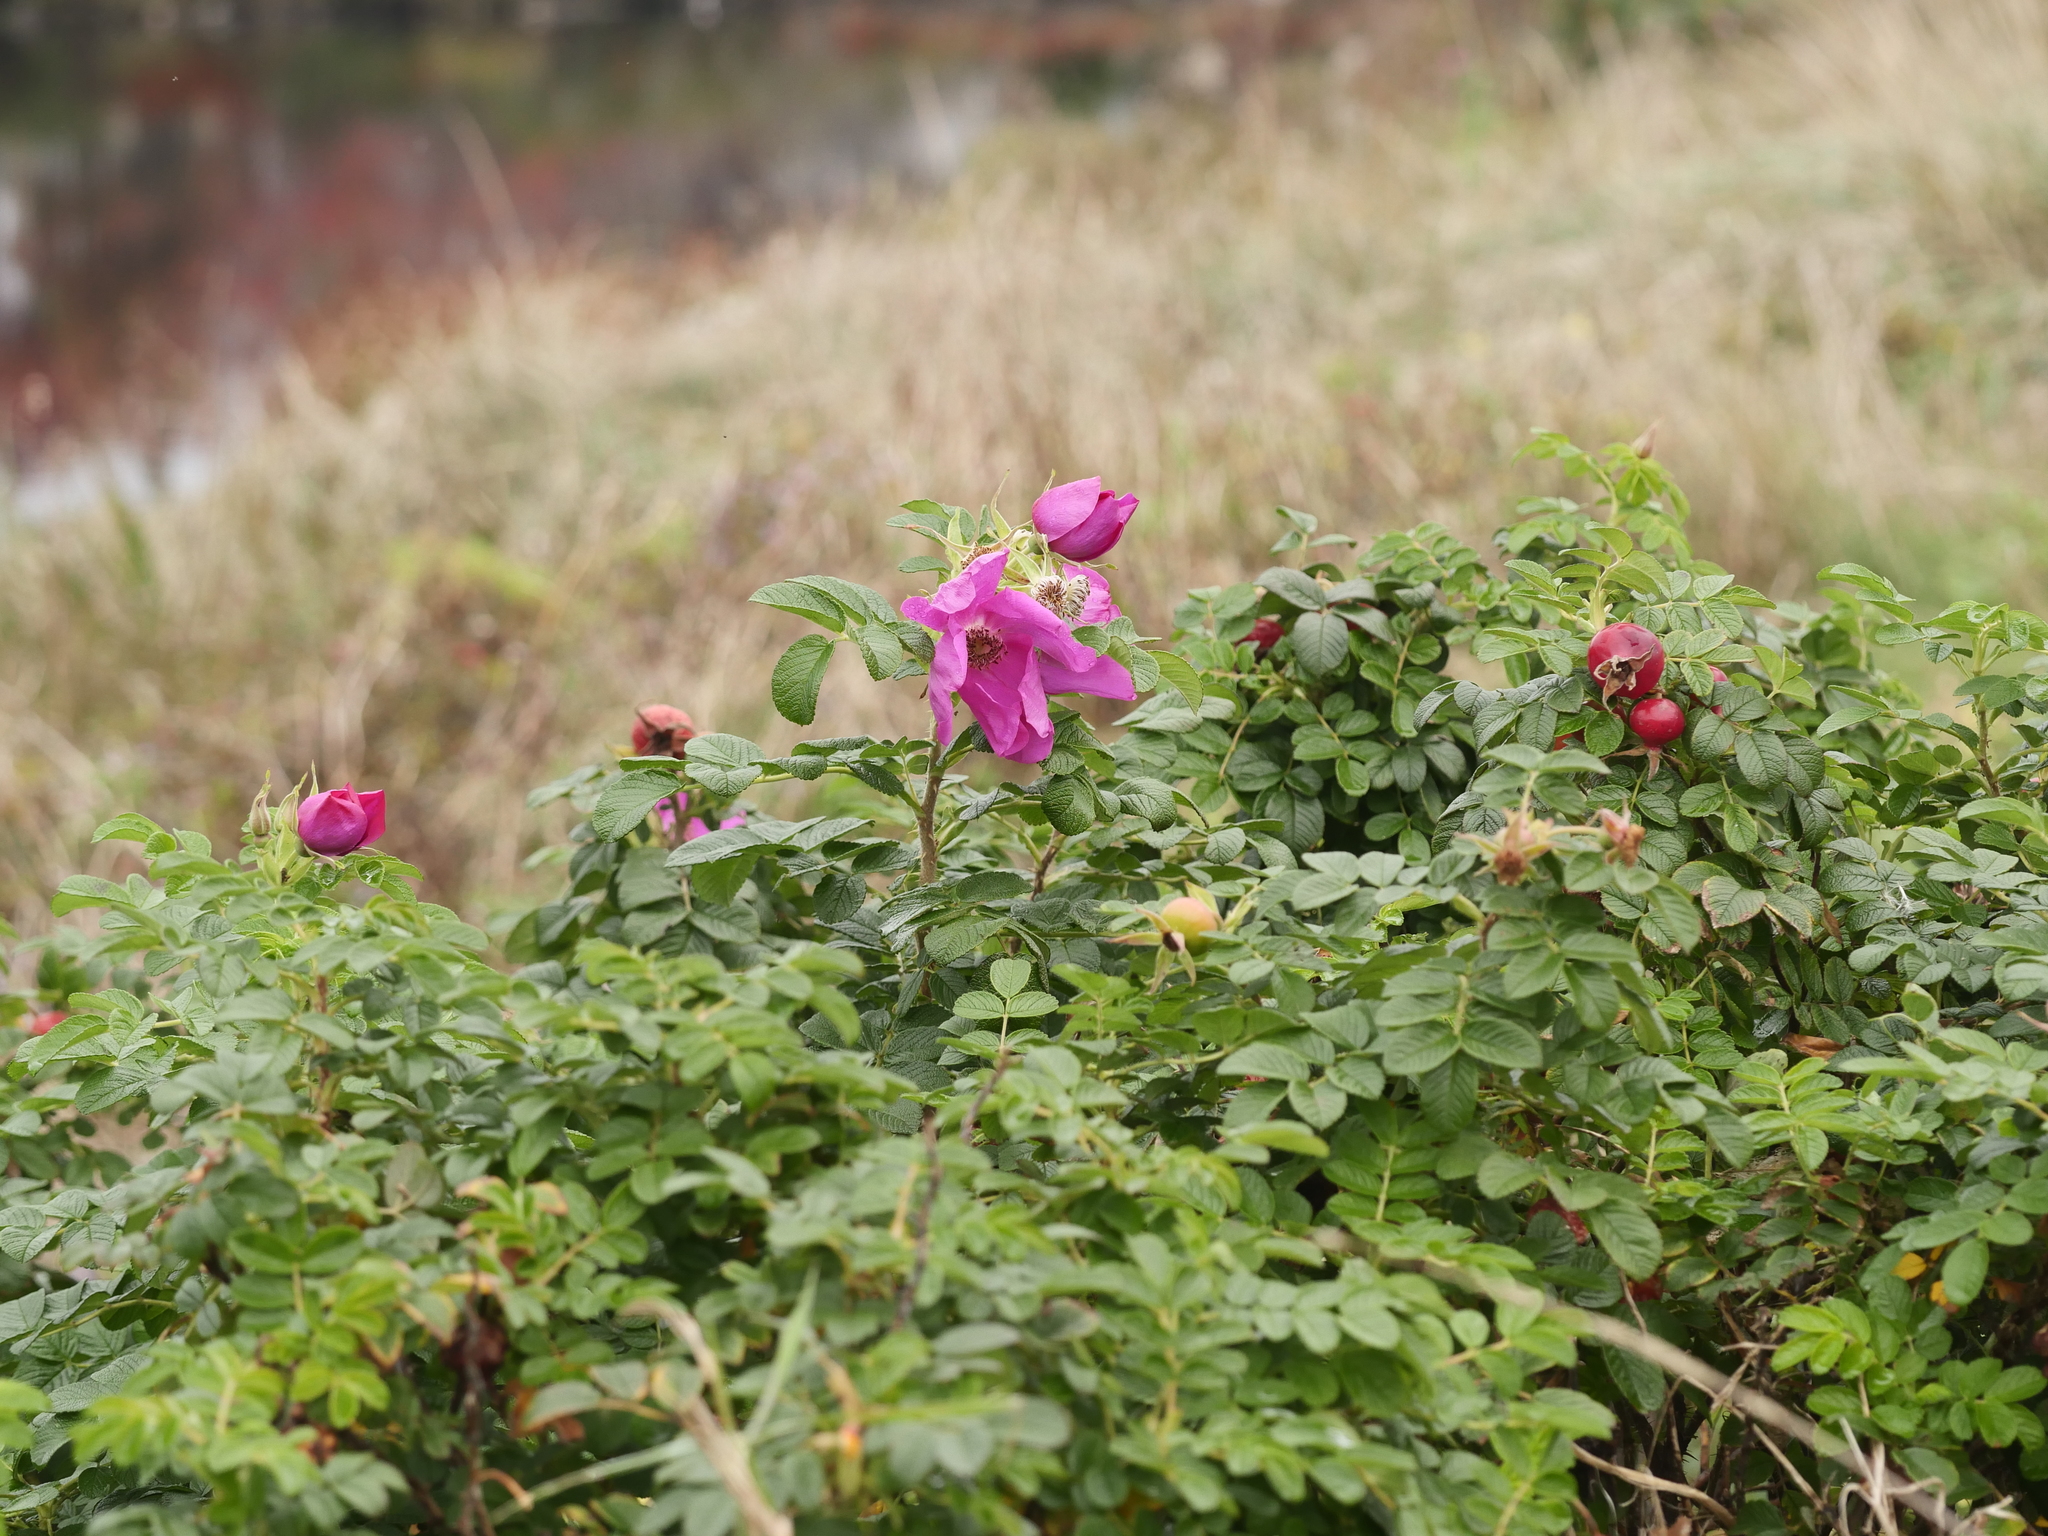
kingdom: Plantae
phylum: Tracheophyta
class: Magnoliopsida
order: Rosales
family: Rosaceae
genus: Rosa
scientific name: Rosa rugosa
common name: Japanese rose
